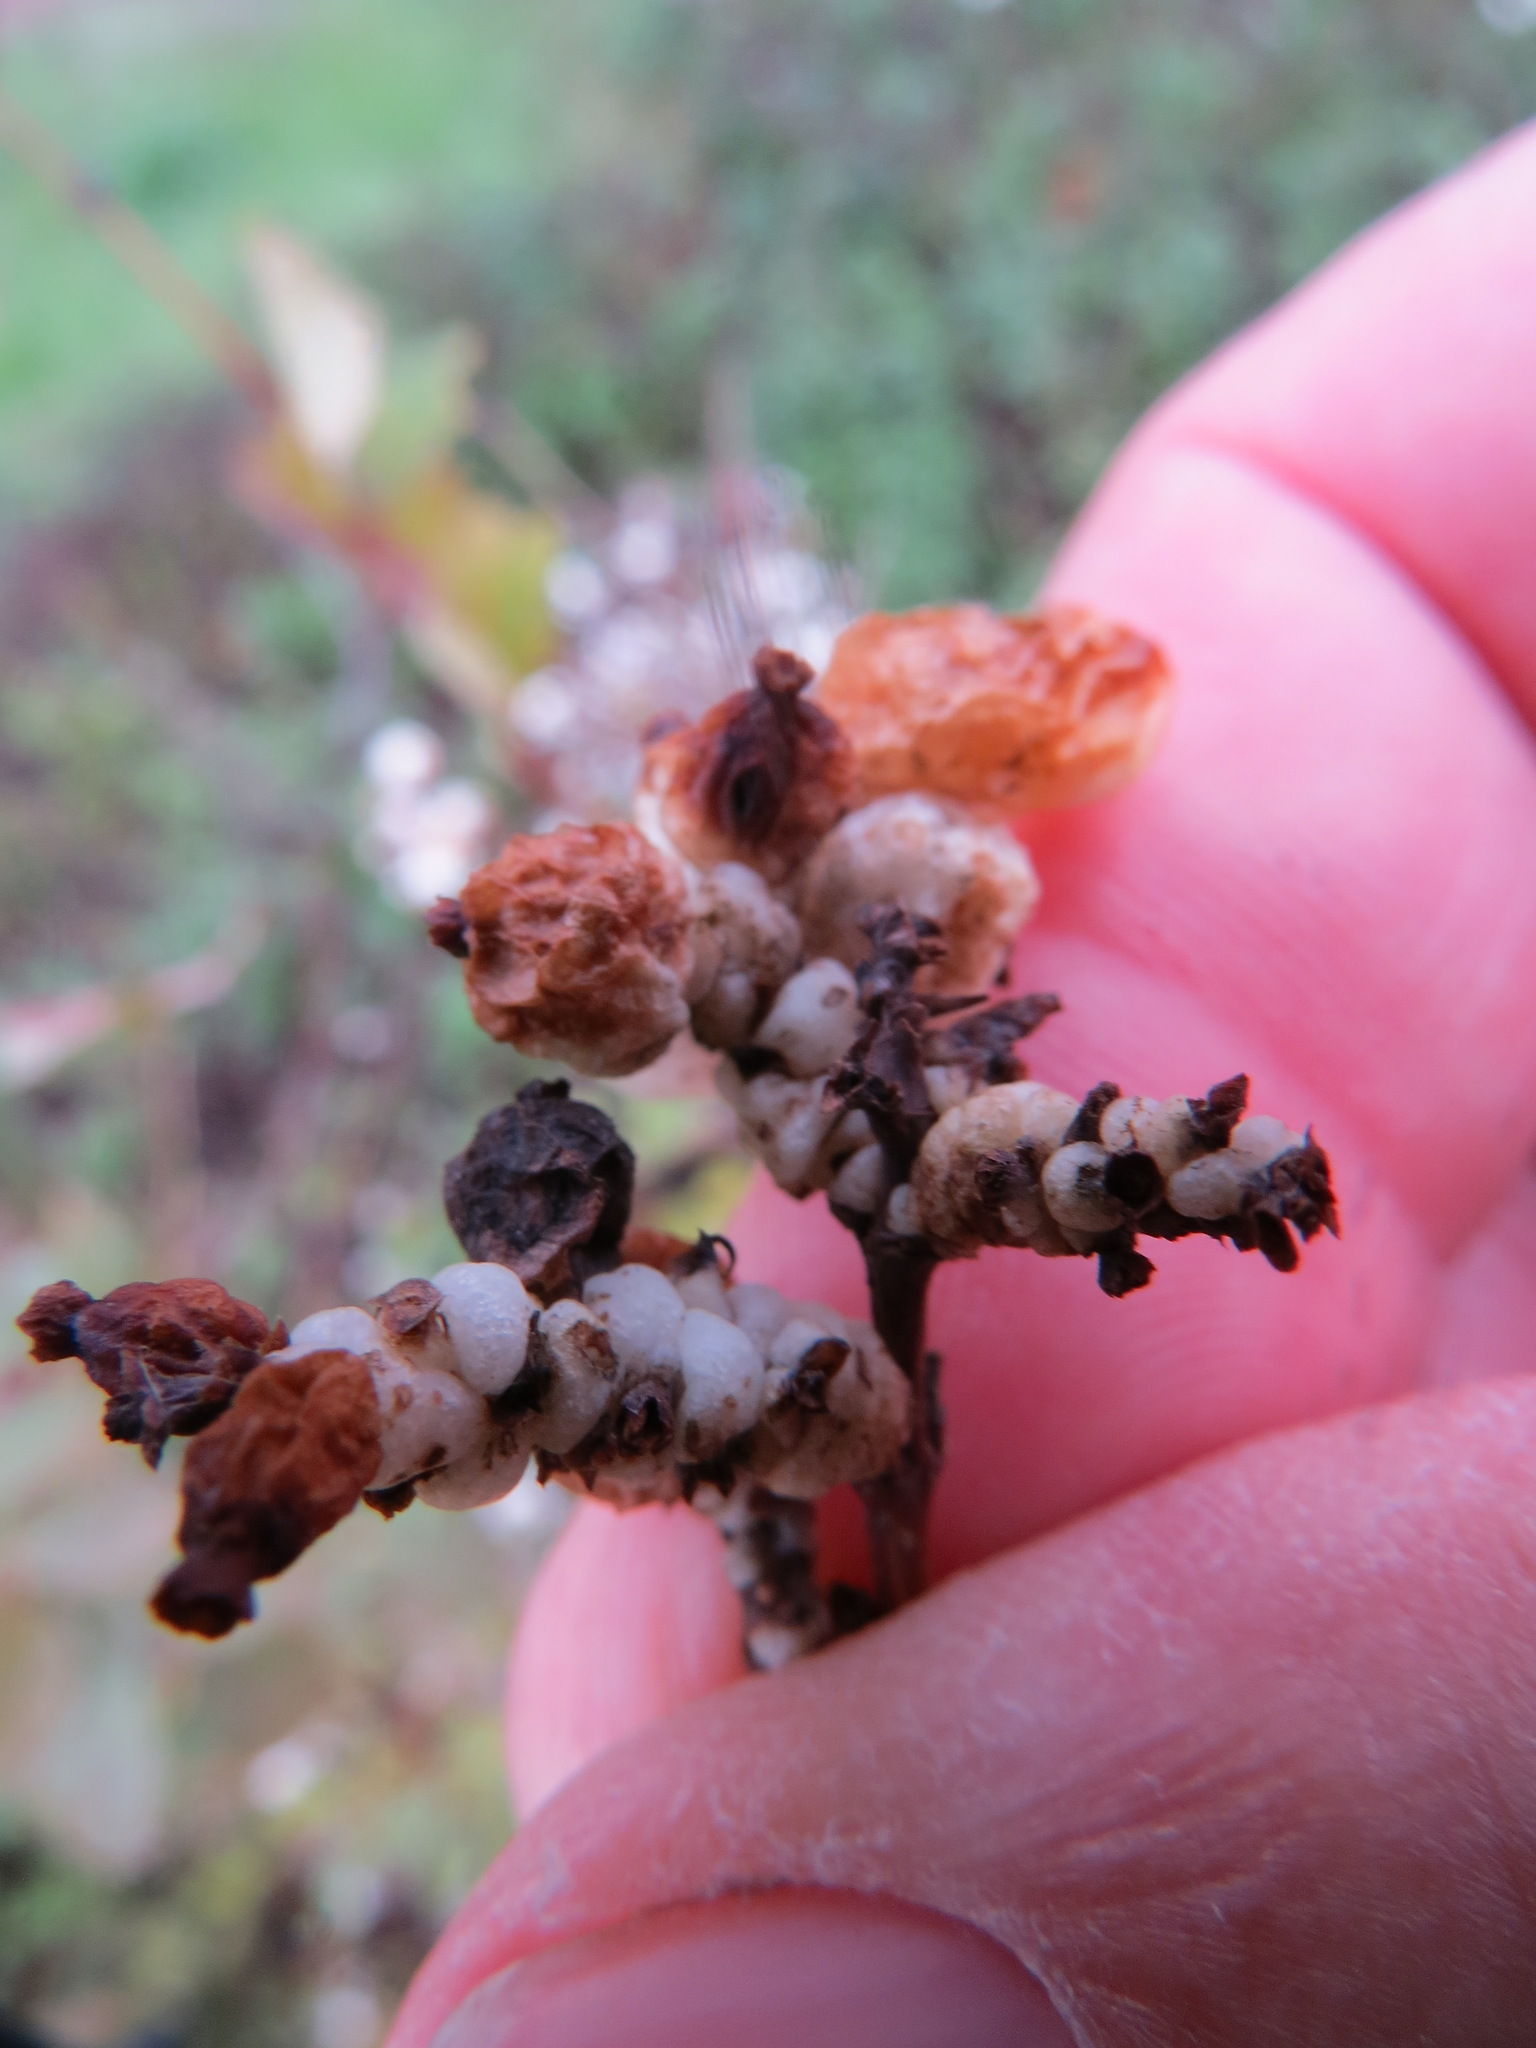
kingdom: Plantae
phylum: Tracheophyta
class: Magnoliopsida
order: Dipsacales
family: Caprifoliaceae
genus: Symphoricarpos
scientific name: Symphoricarpos albus
